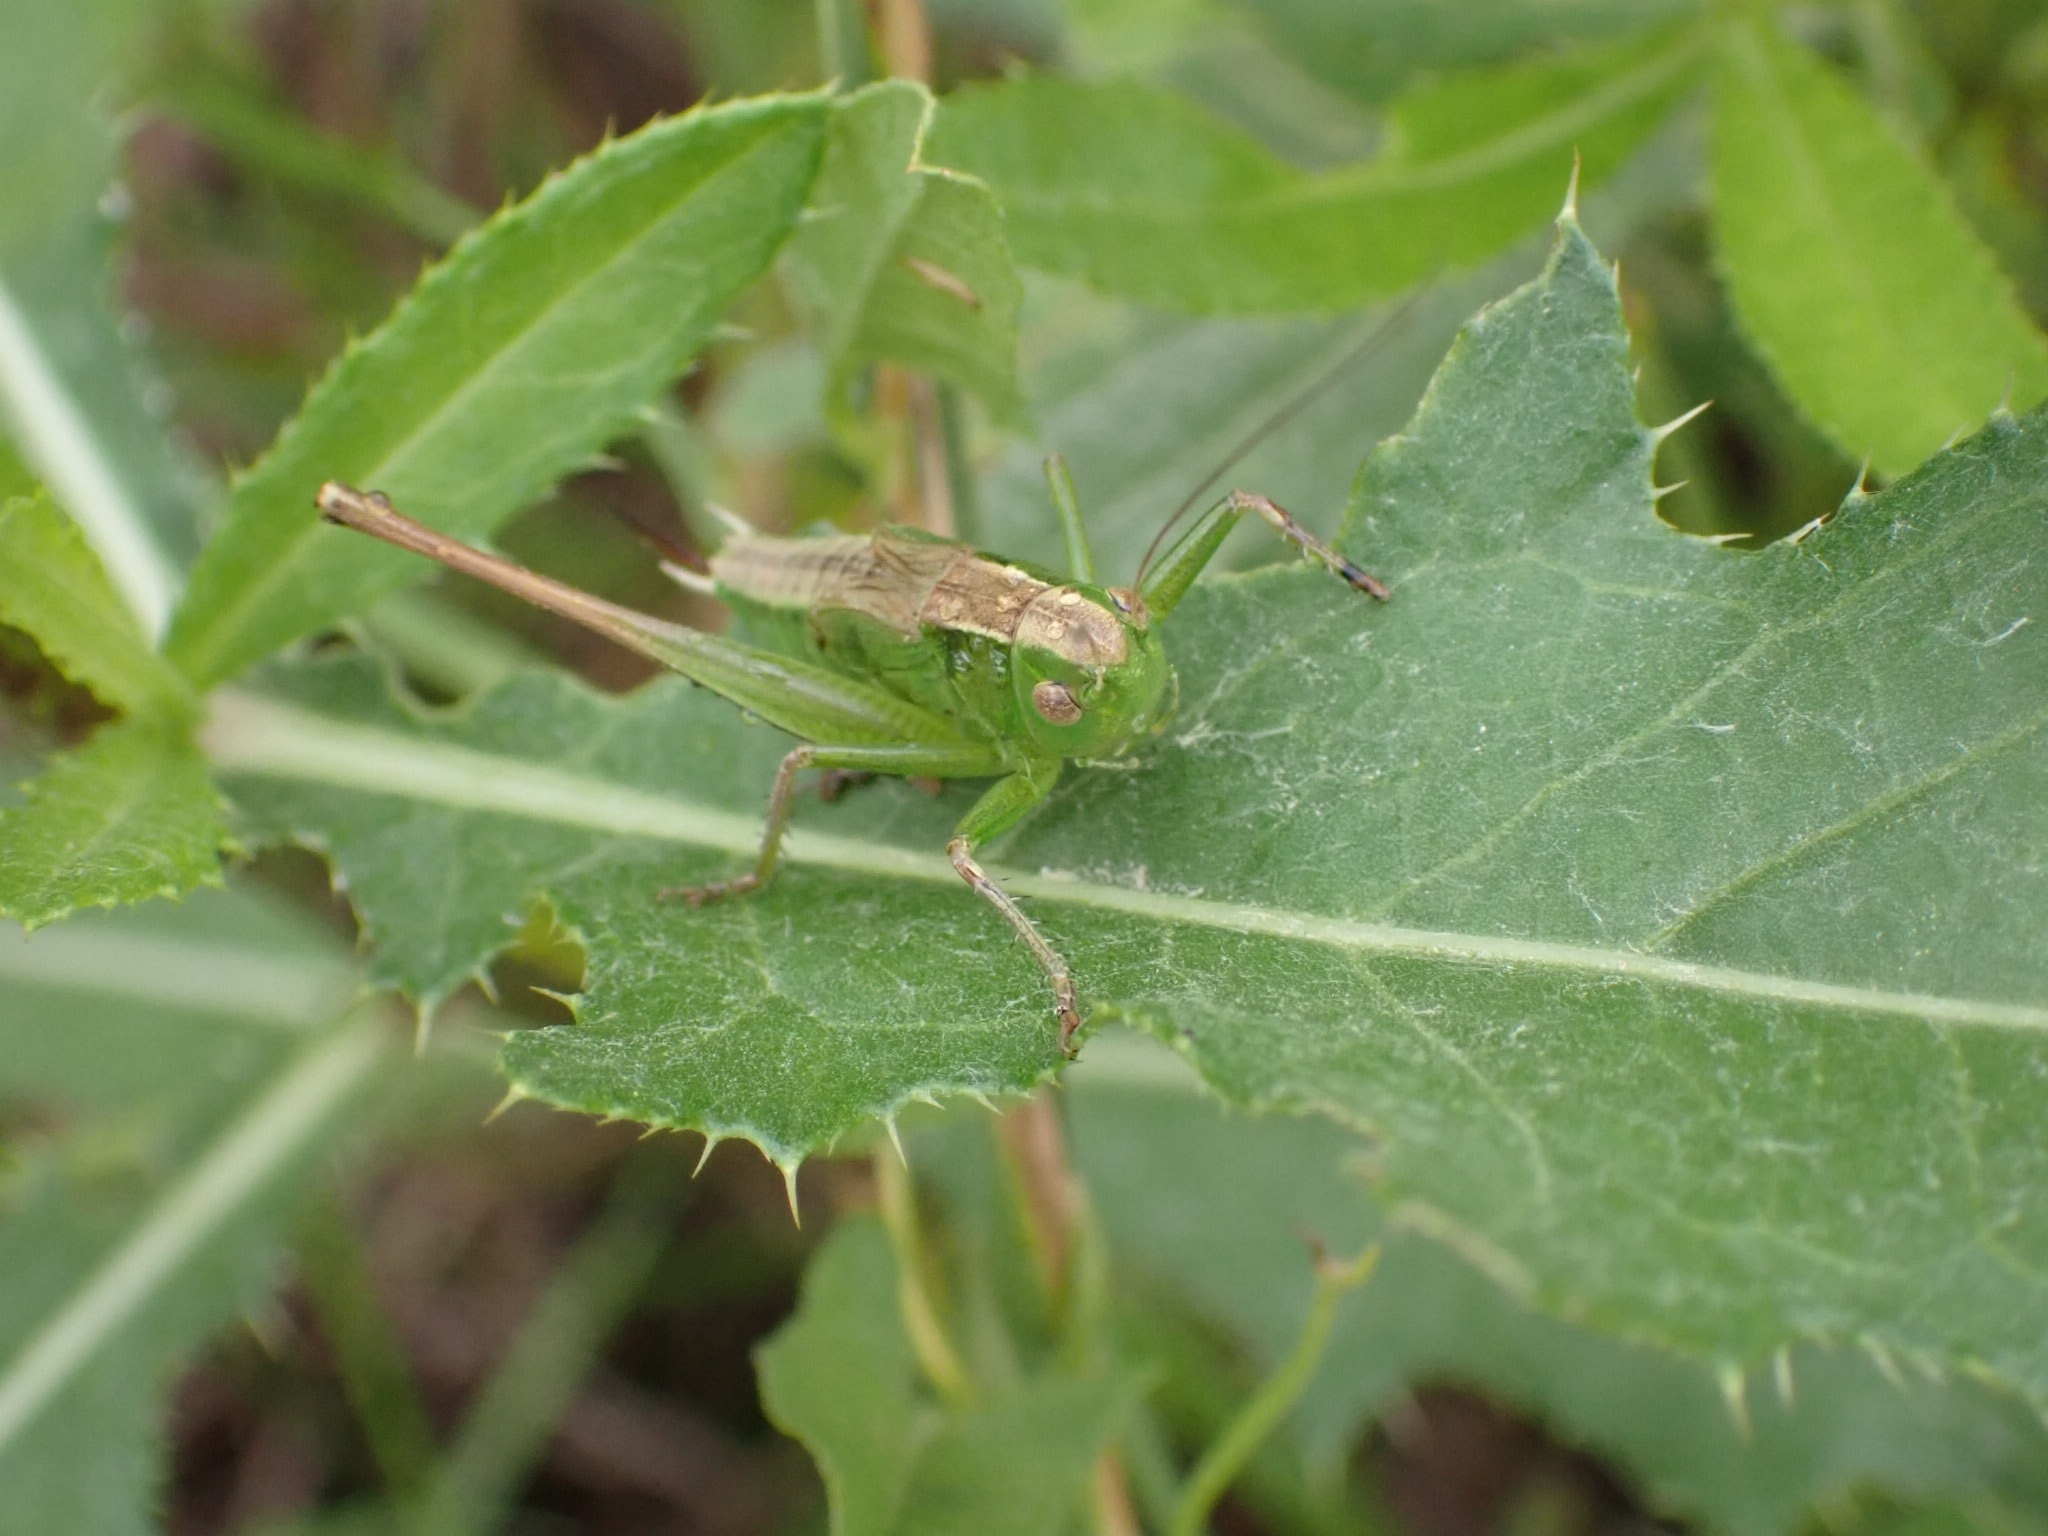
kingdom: Animalia
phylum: Arthropoda
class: Insecta
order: Orthoptera
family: Tettigoniidae
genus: Bicolorana
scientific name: Bicolorana bicolor
